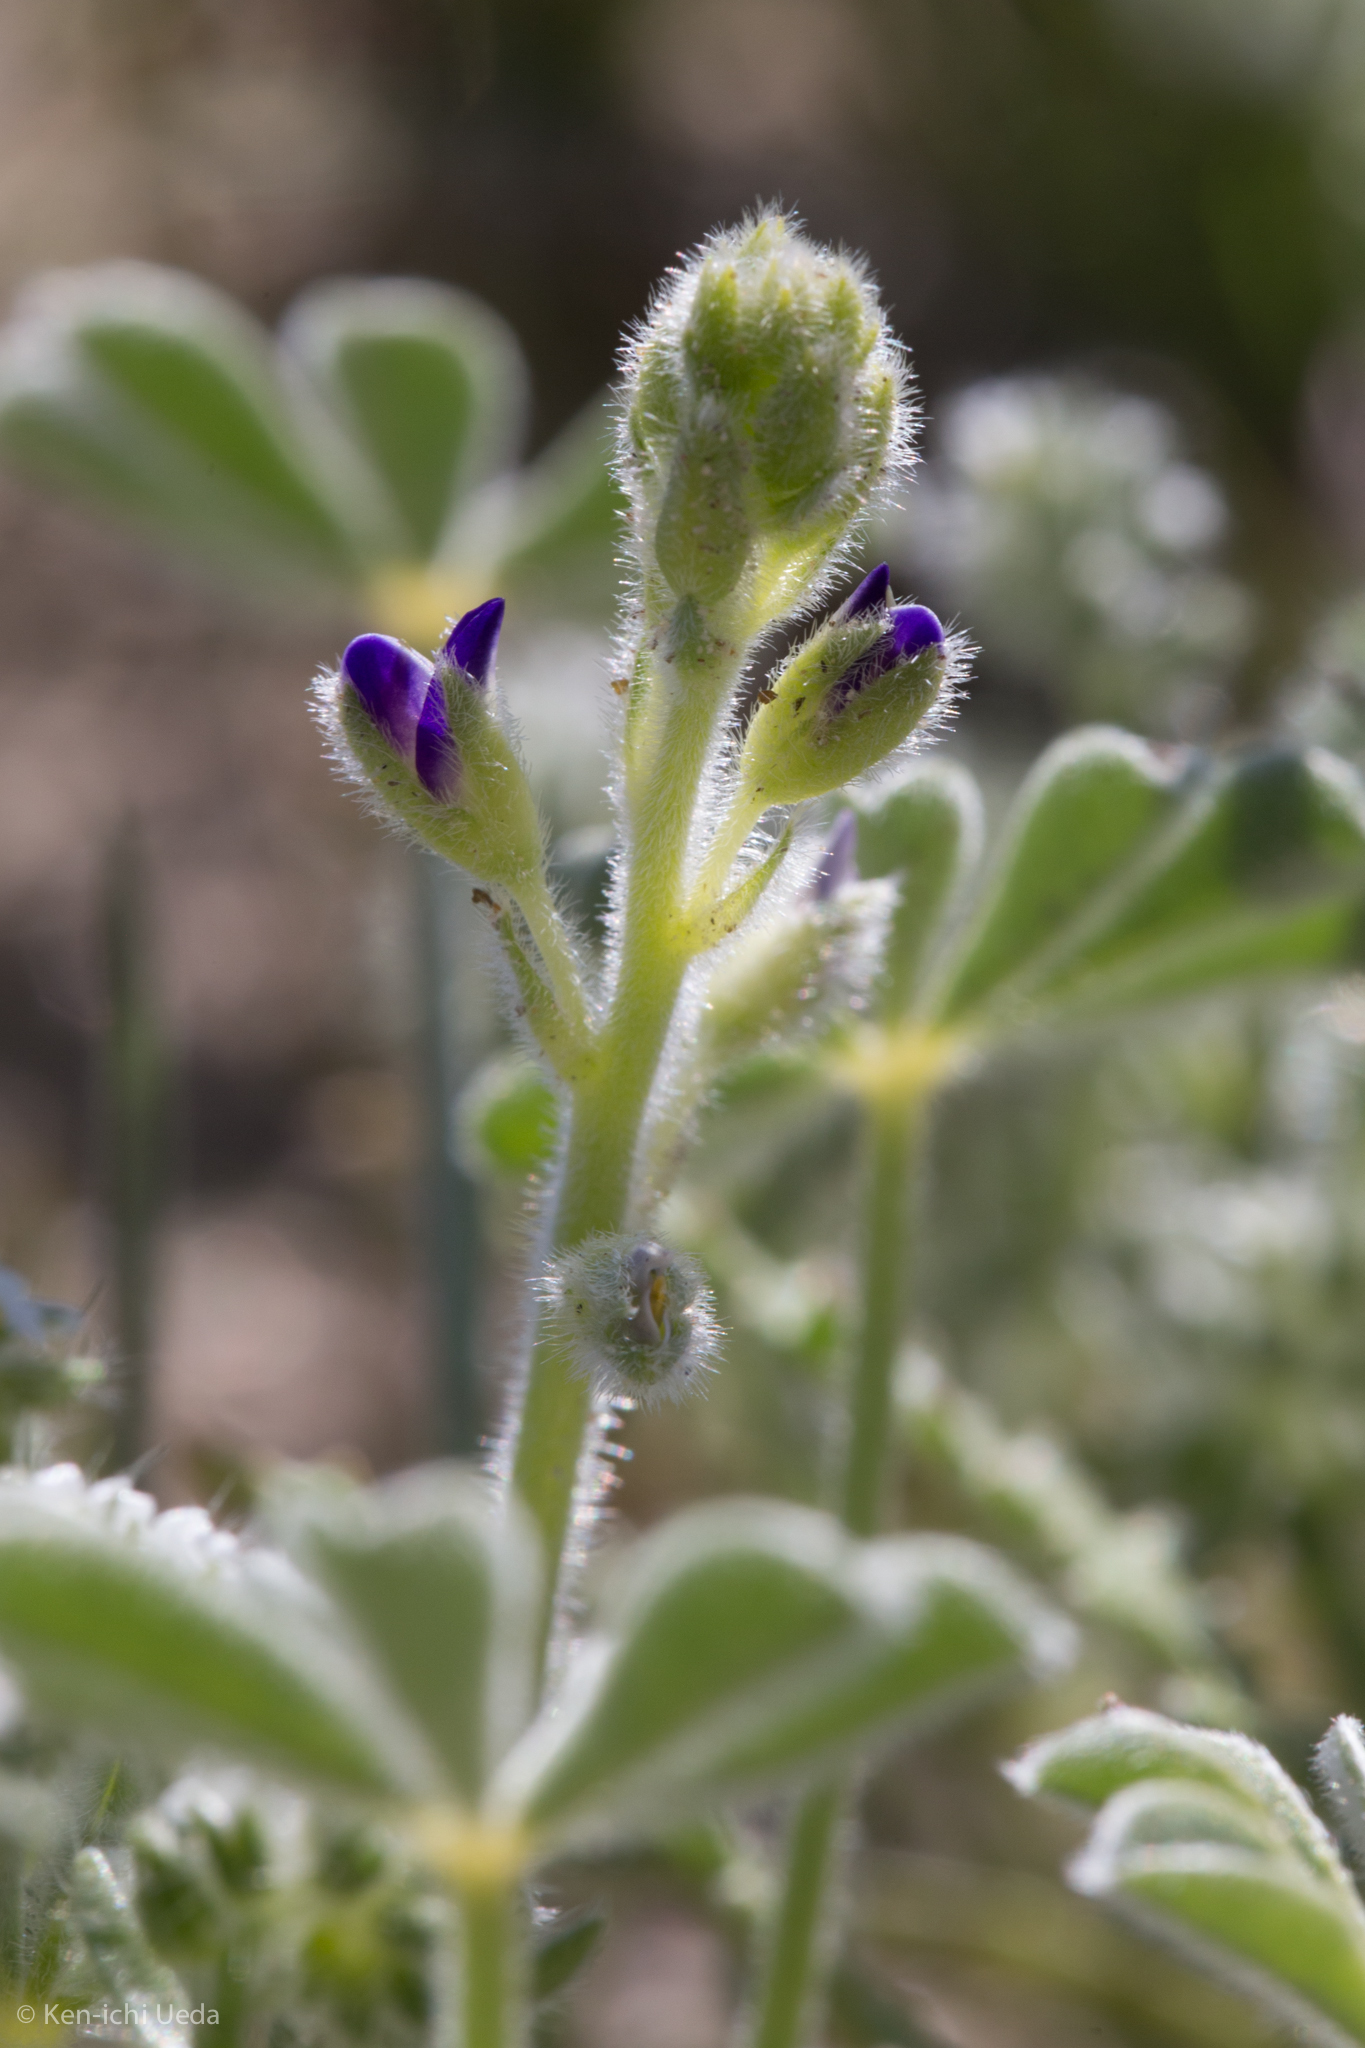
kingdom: Plantae
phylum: Tracheophyta
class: Magnoliopsida
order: Fabales
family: Fabaceae
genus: Lupinus
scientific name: Lupinus shockleyi
